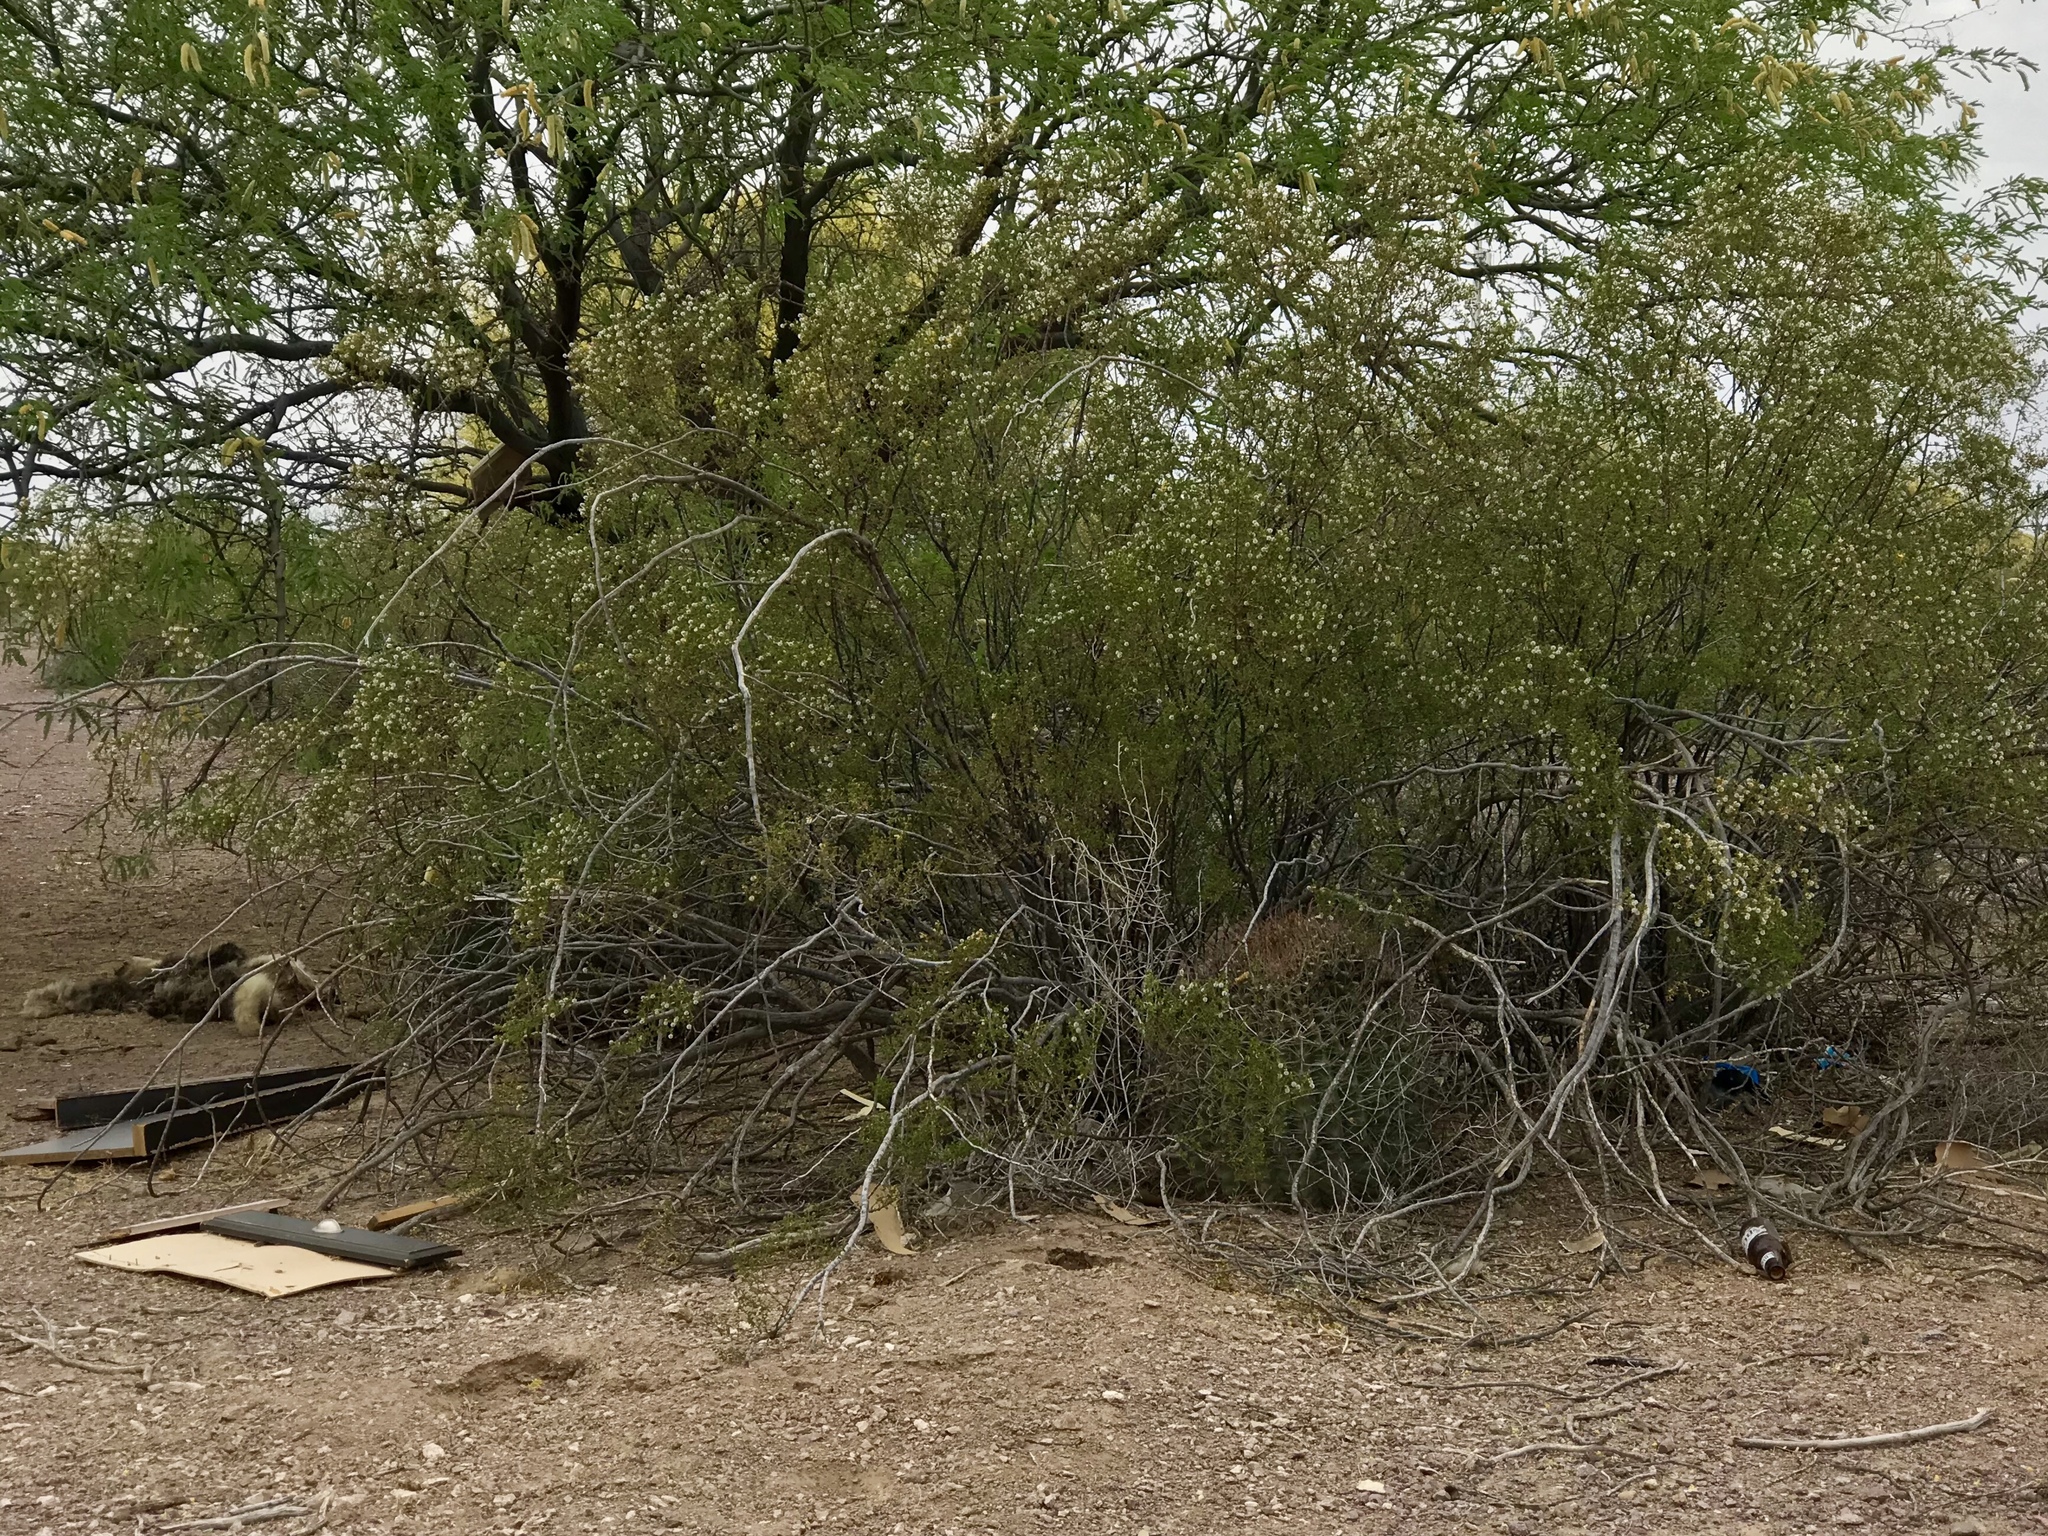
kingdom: Plantae
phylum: Tracheophyta
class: Magnoliopsida
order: Zygophyllales
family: Zygophyllaceae
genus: Larrea
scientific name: Larrea tridentata
